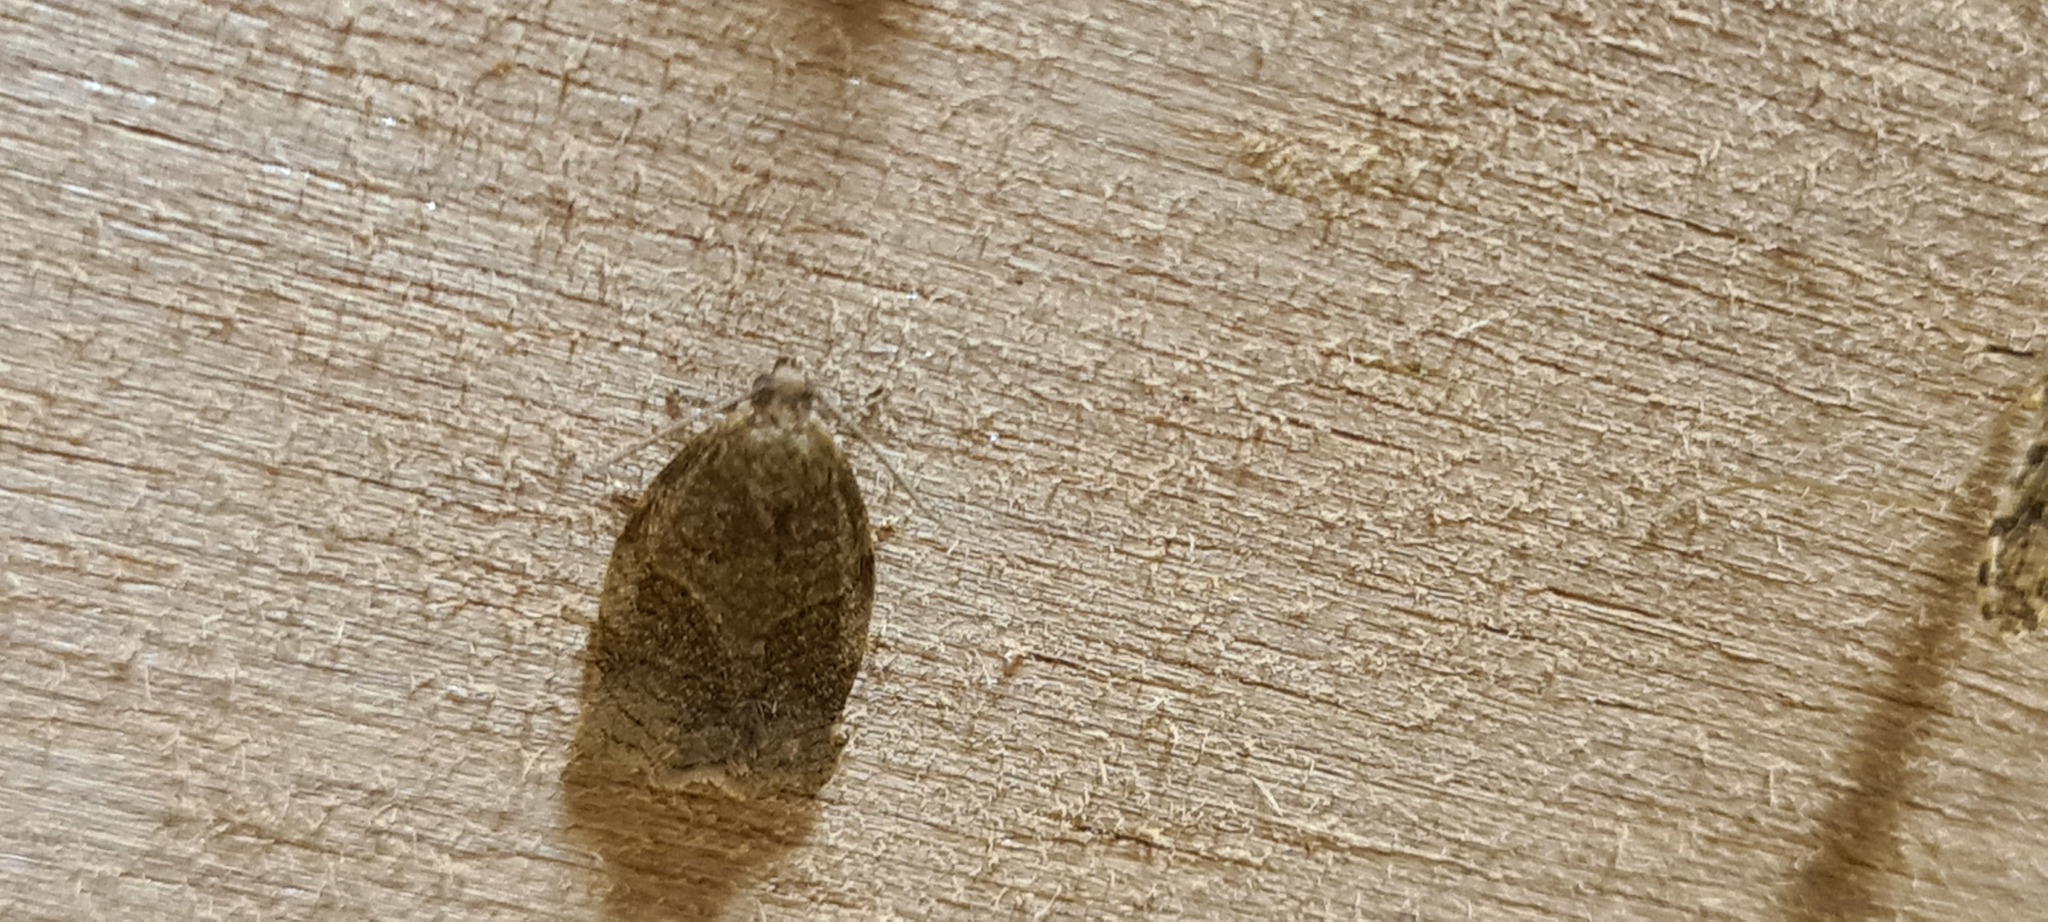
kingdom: Animalia
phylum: Arthropoda
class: Insecta
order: Lepidoptera
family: Tortricidae
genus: Archips
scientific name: Archips rosana
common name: Rose tortrix
